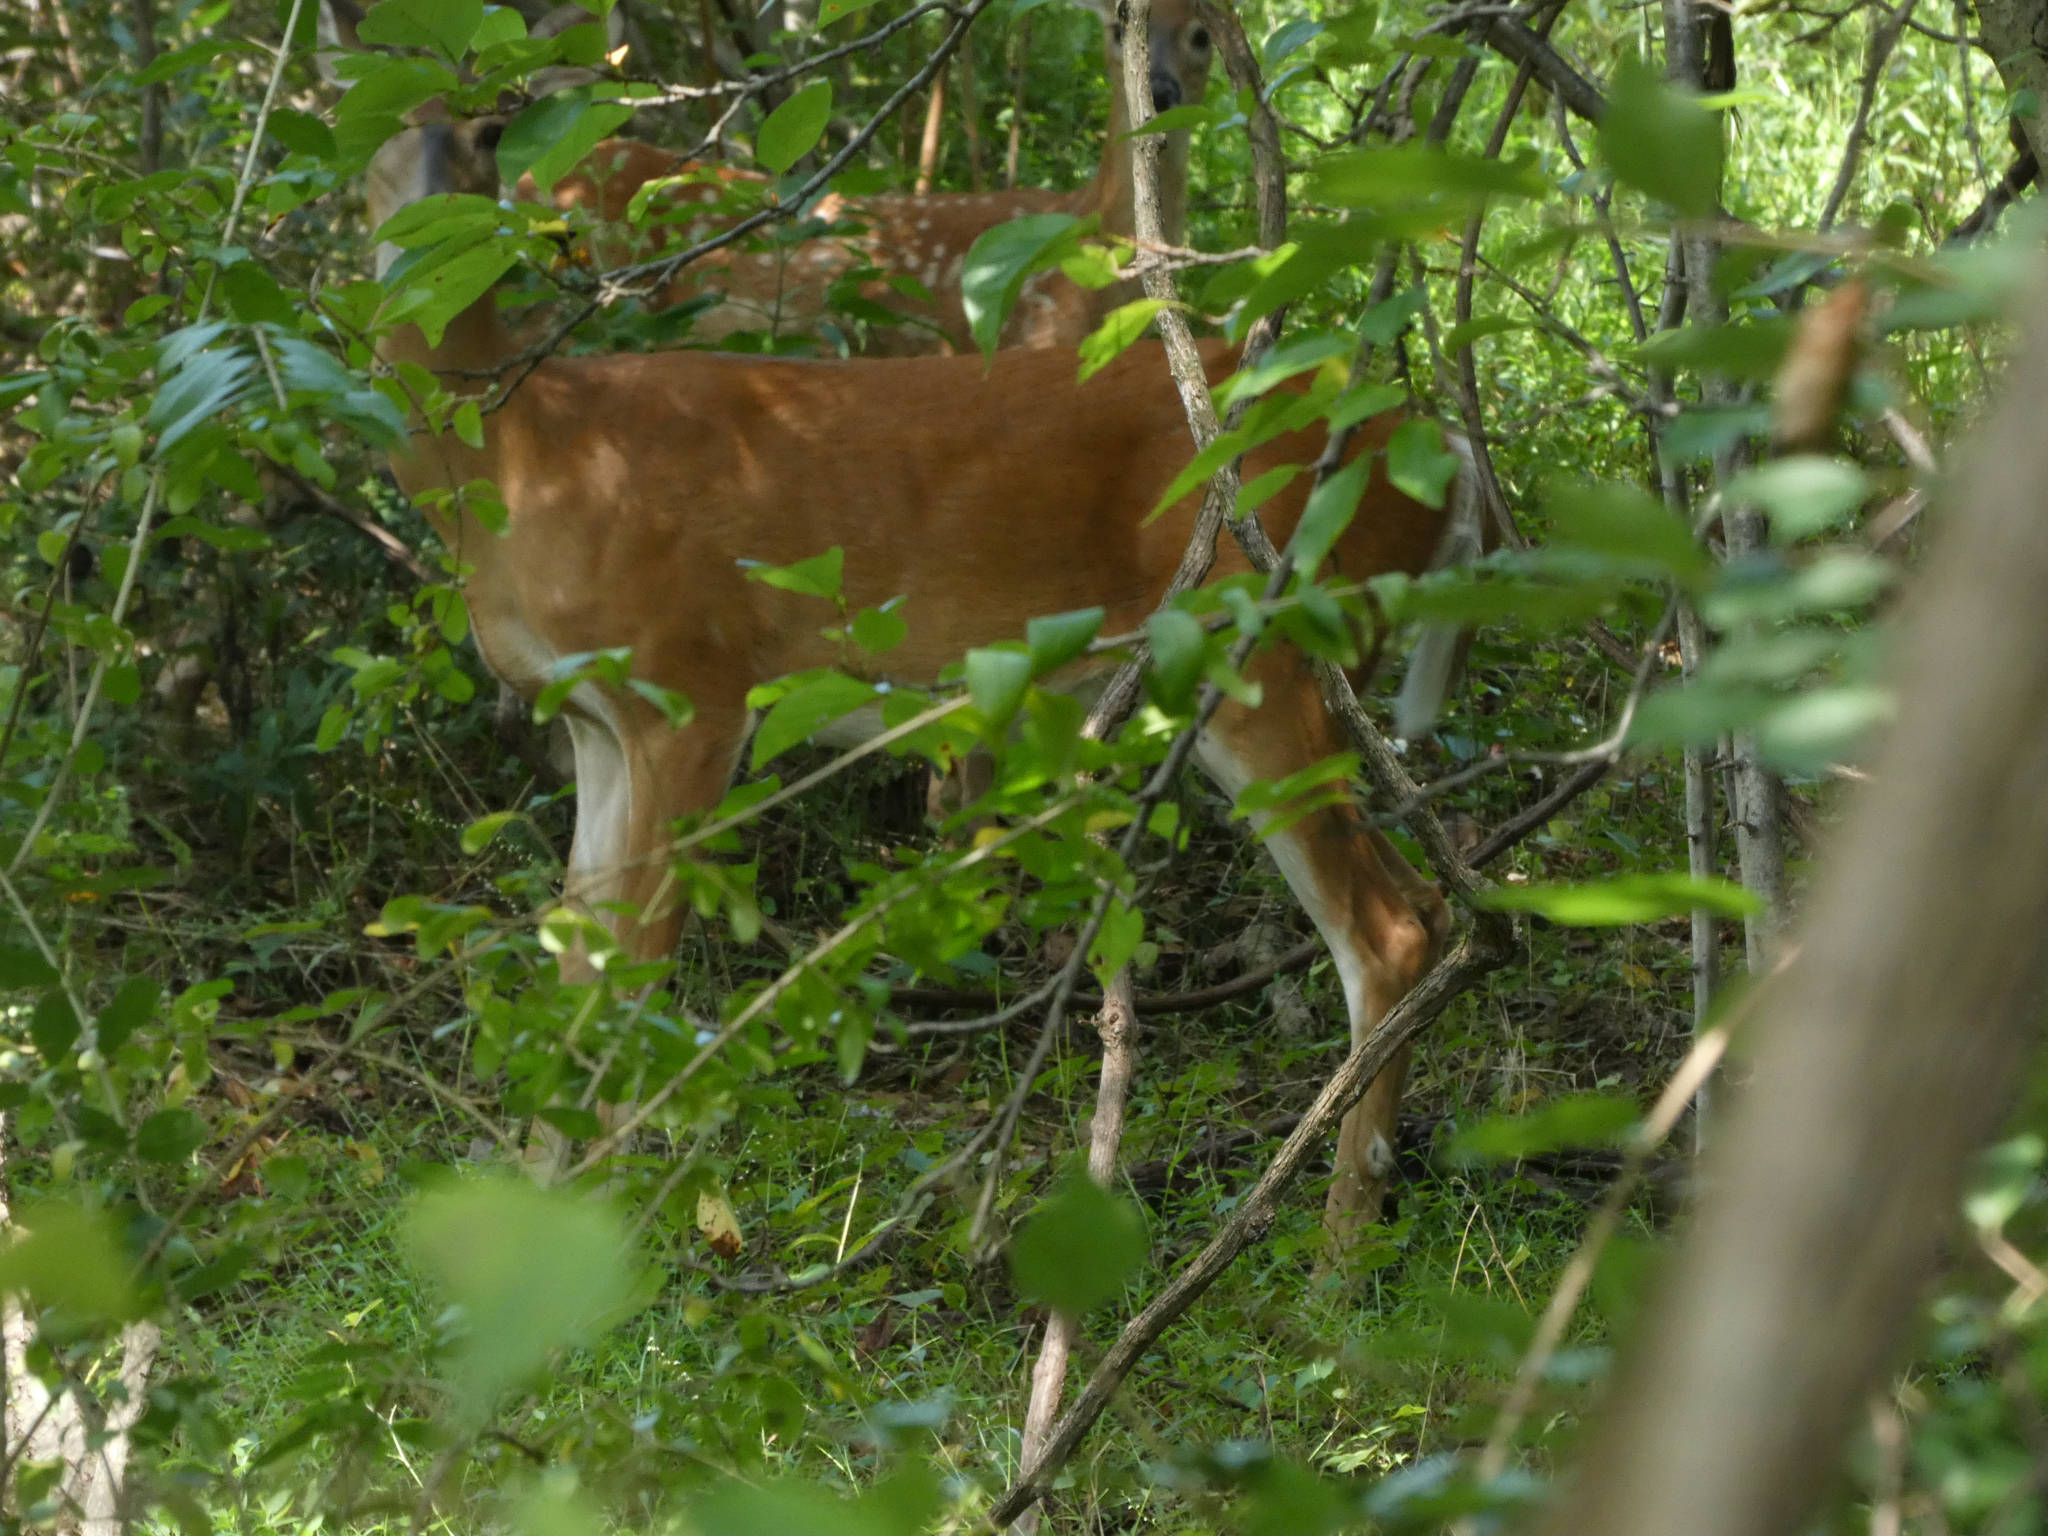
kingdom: Animalia
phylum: Chordata
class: Mammalia
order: Artiodactyla
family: Cervidae
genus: Odocoileus
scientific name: Odocoileus virginianus
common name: White-tailed deer
